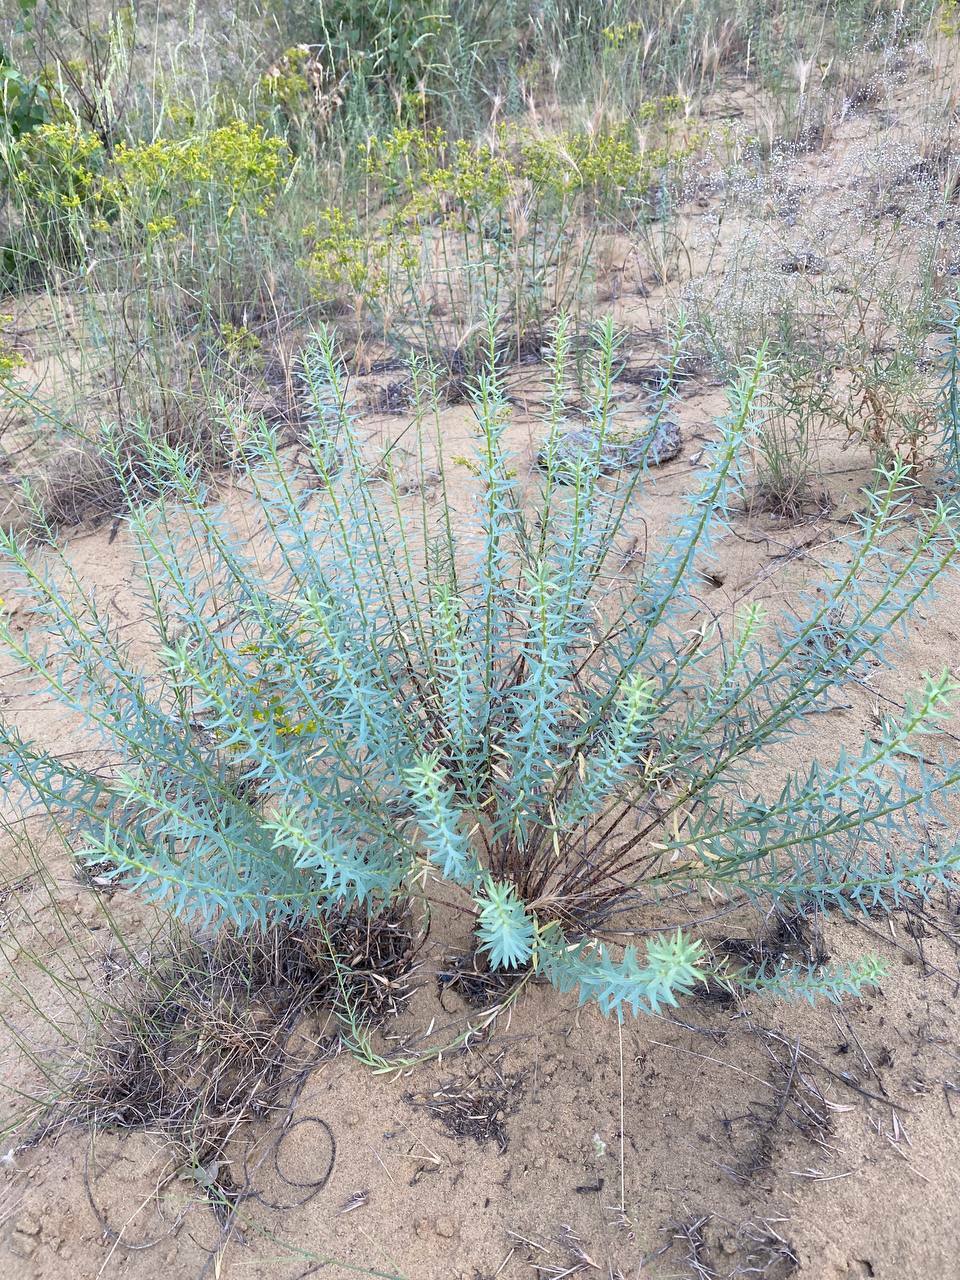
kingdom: Plantae
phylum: Tracheophyta
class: Magnoliopsida
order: Malpighiales
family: Euphorbiaceae
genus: Euphorbia
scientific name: Euphorbia seguieriana
